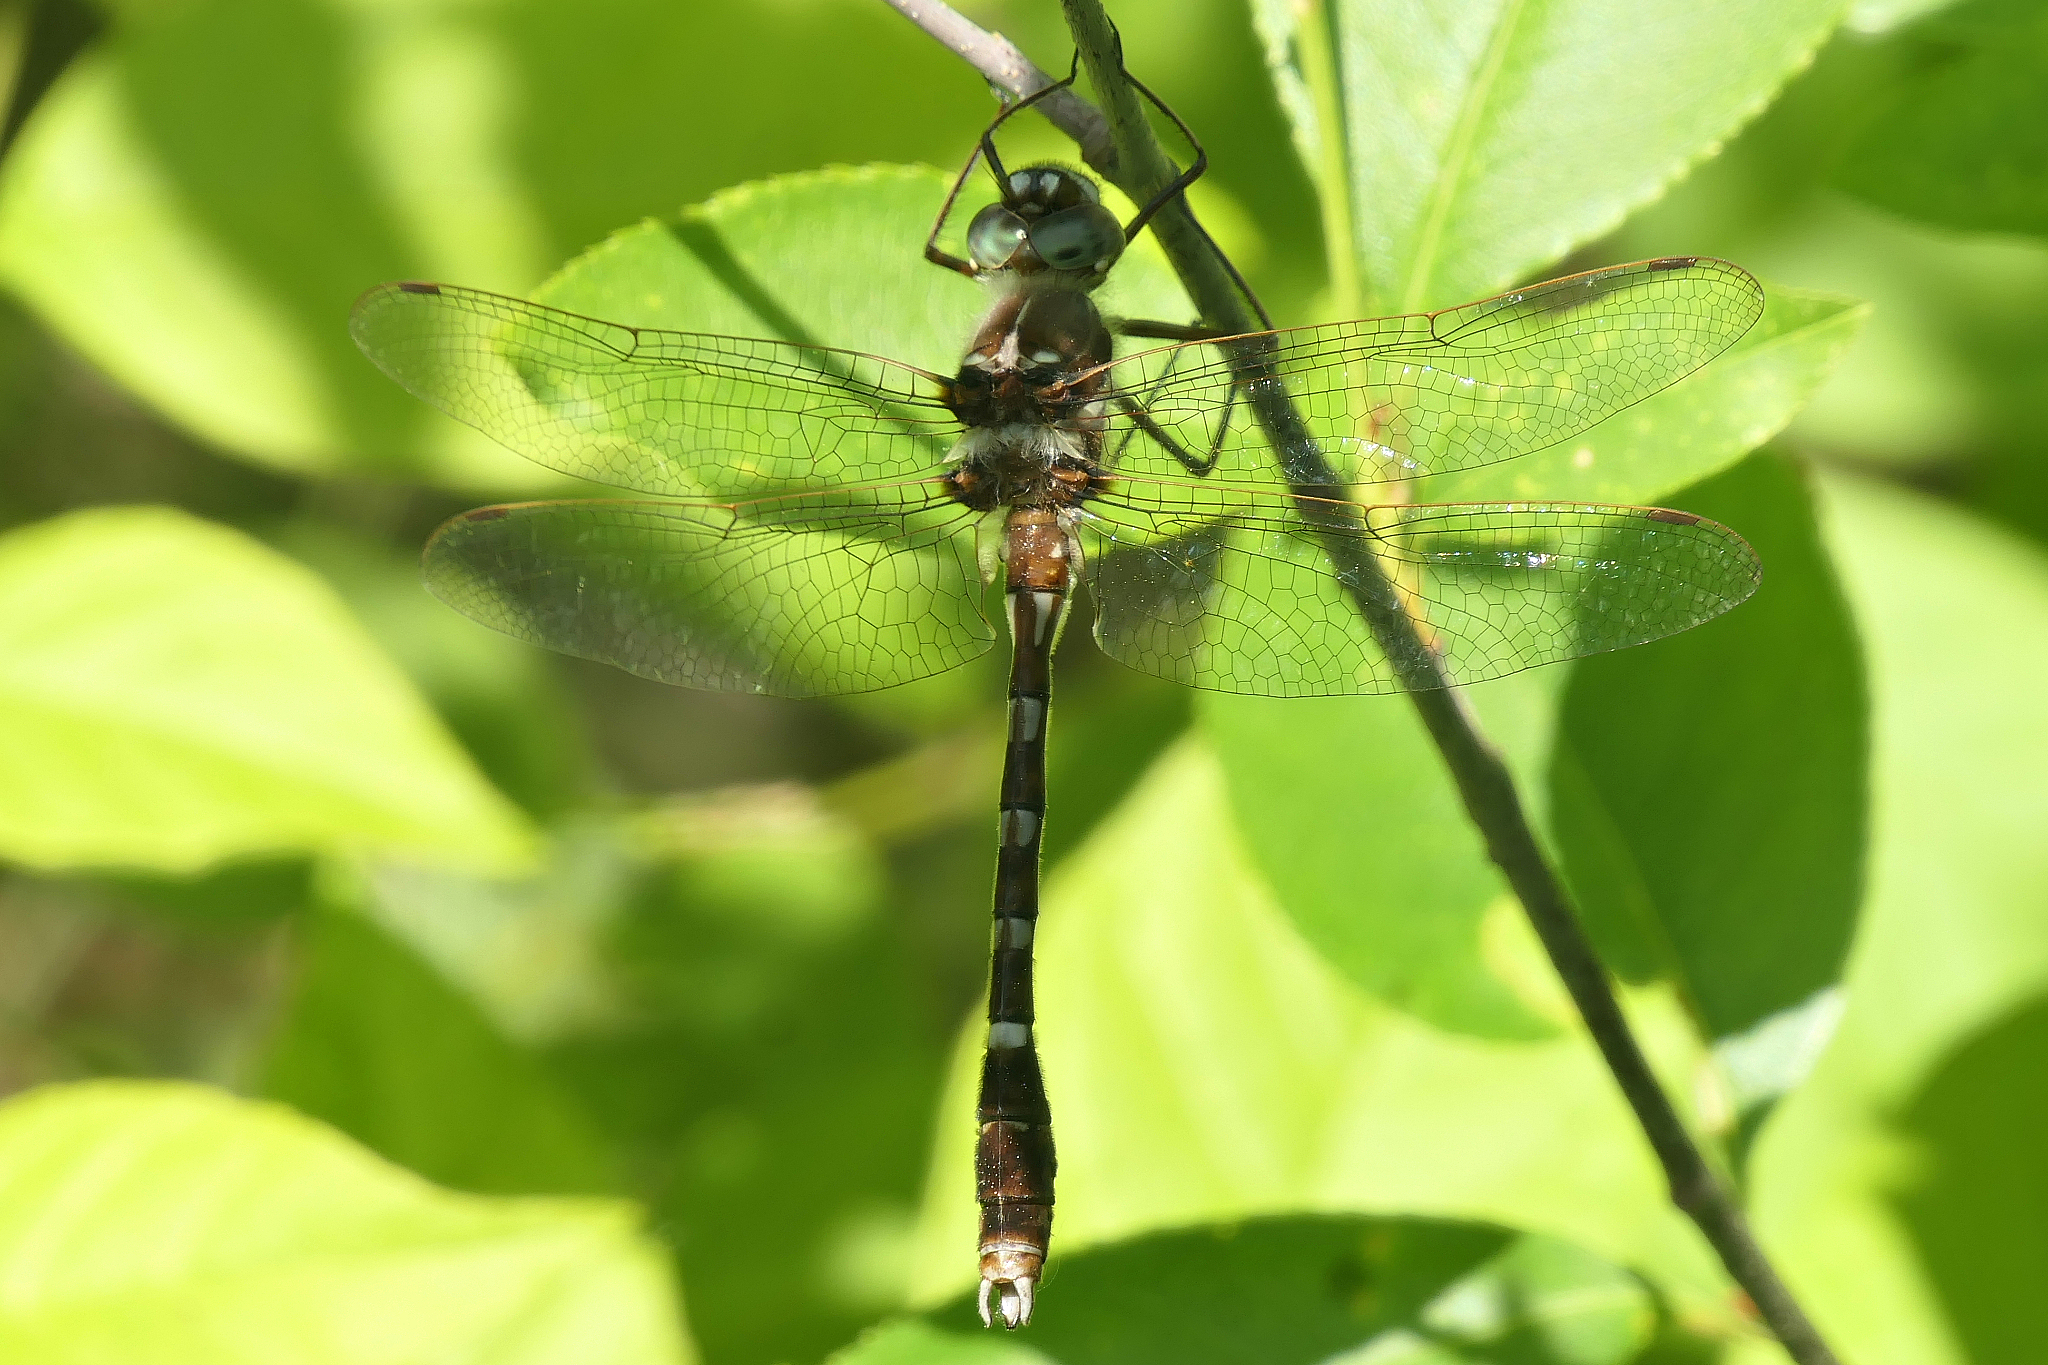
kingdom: Animalia
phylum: Arthropoda
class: Insecta
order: Odonata
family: Macromiidae
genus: Didymops
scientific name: Didymops transversa
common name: Stream cruiser
